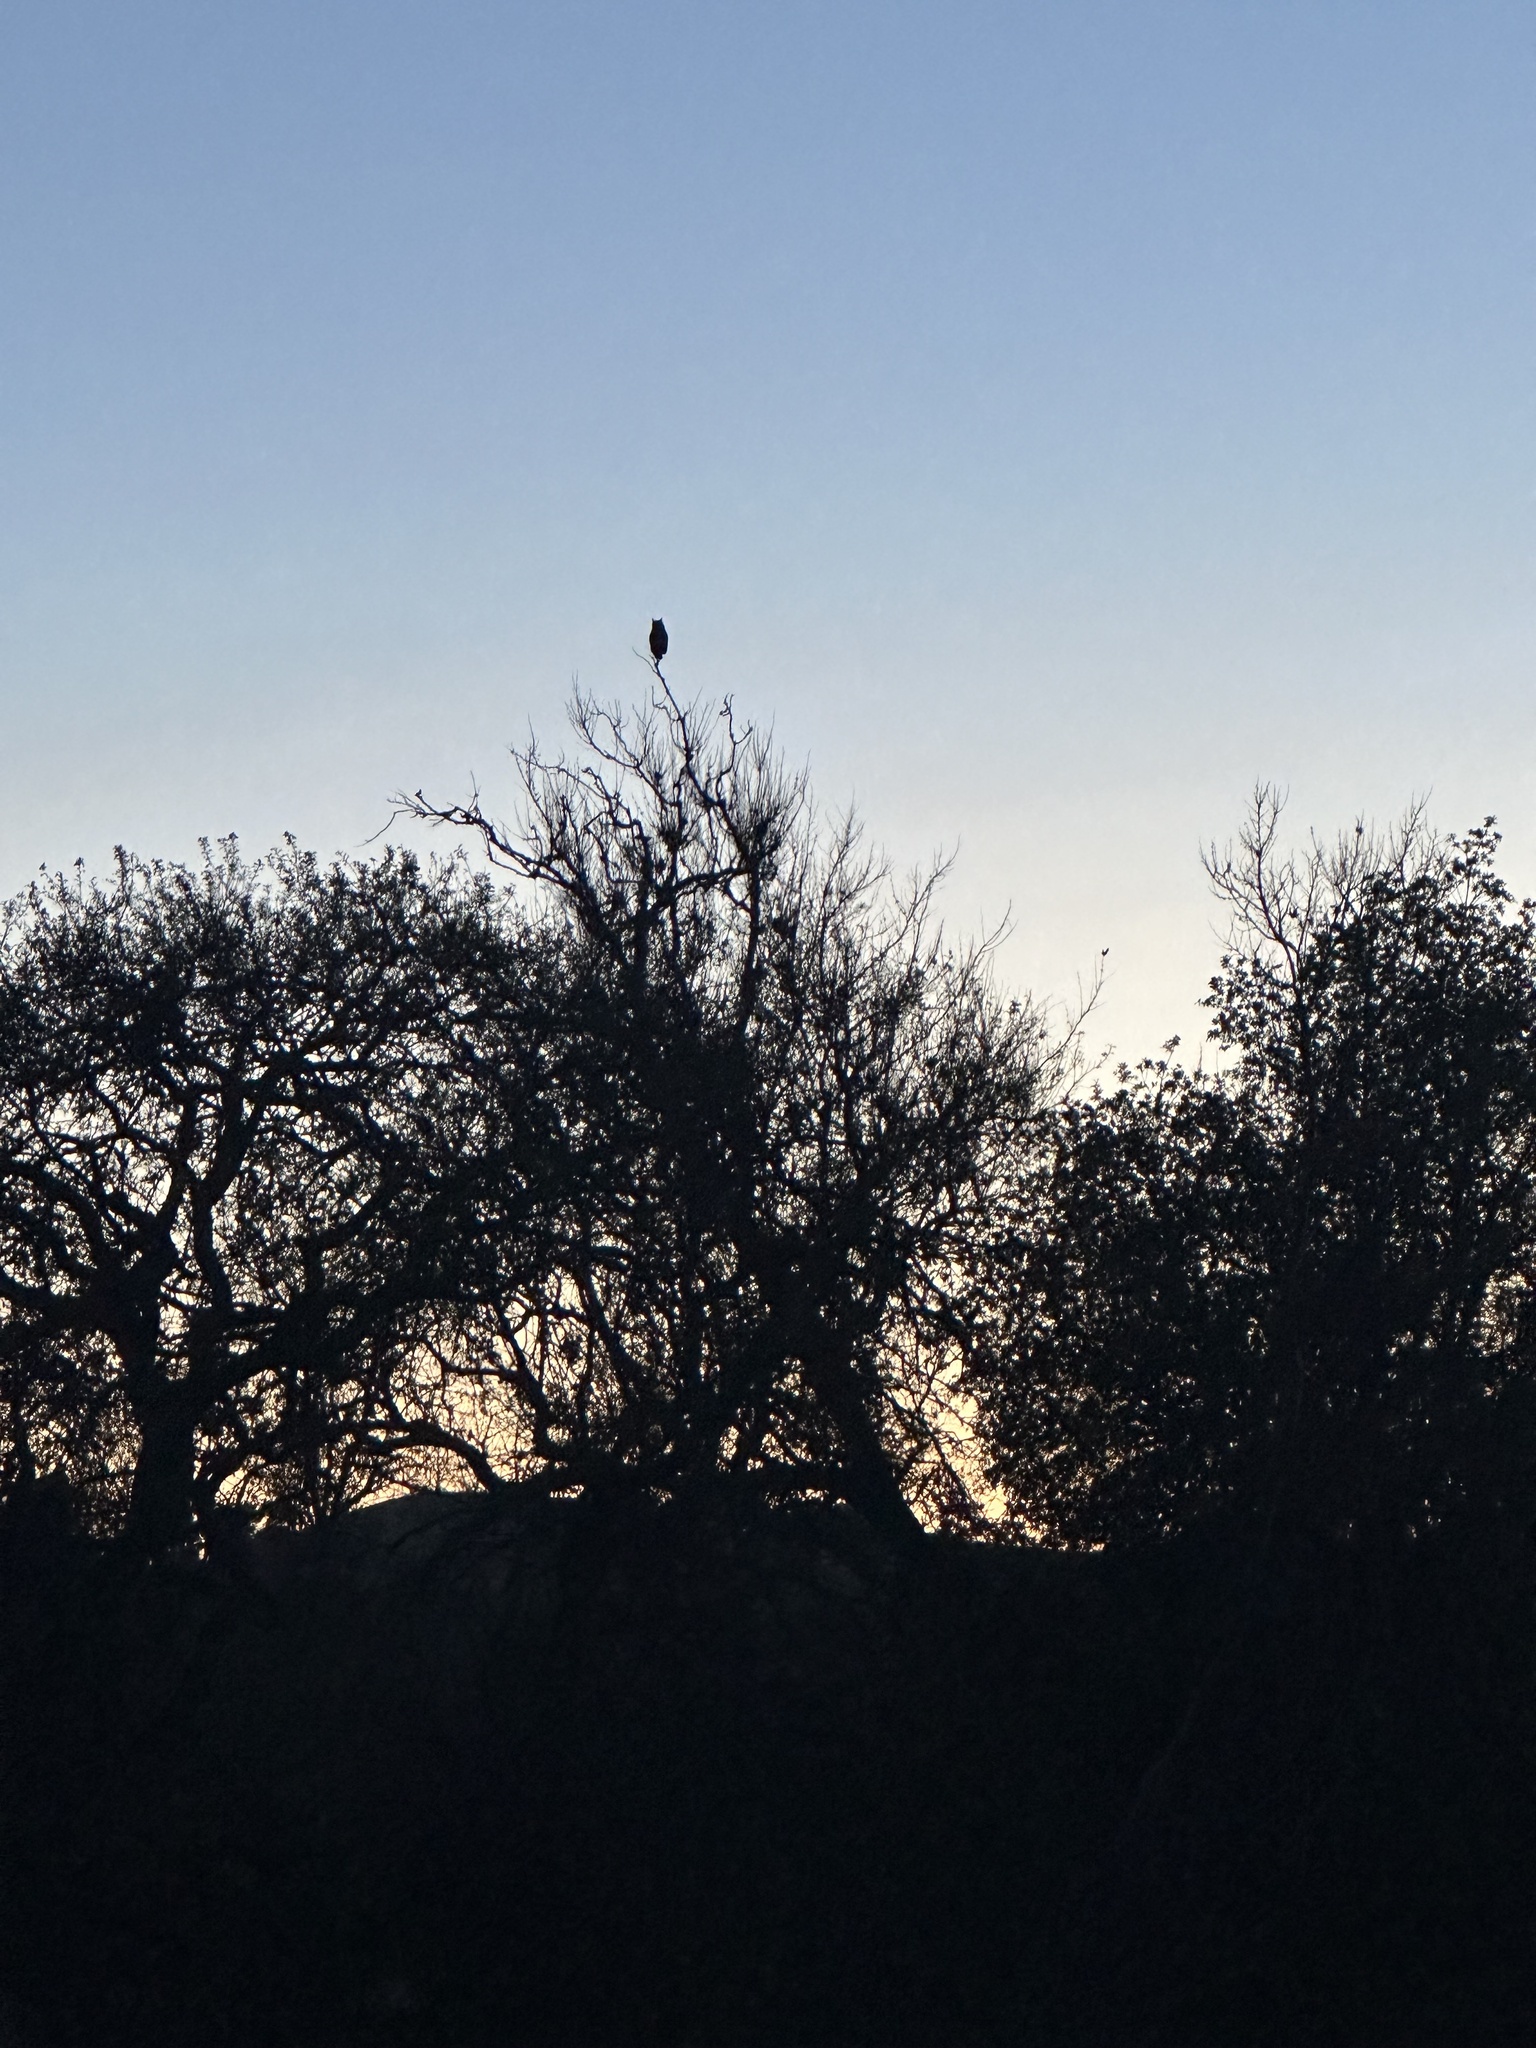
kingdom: Animalia
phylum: Chordata
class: Aves
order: Strigiformes
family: Strigidae
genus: Bubo
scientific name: Bubo virginianus
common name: Great horned owl
